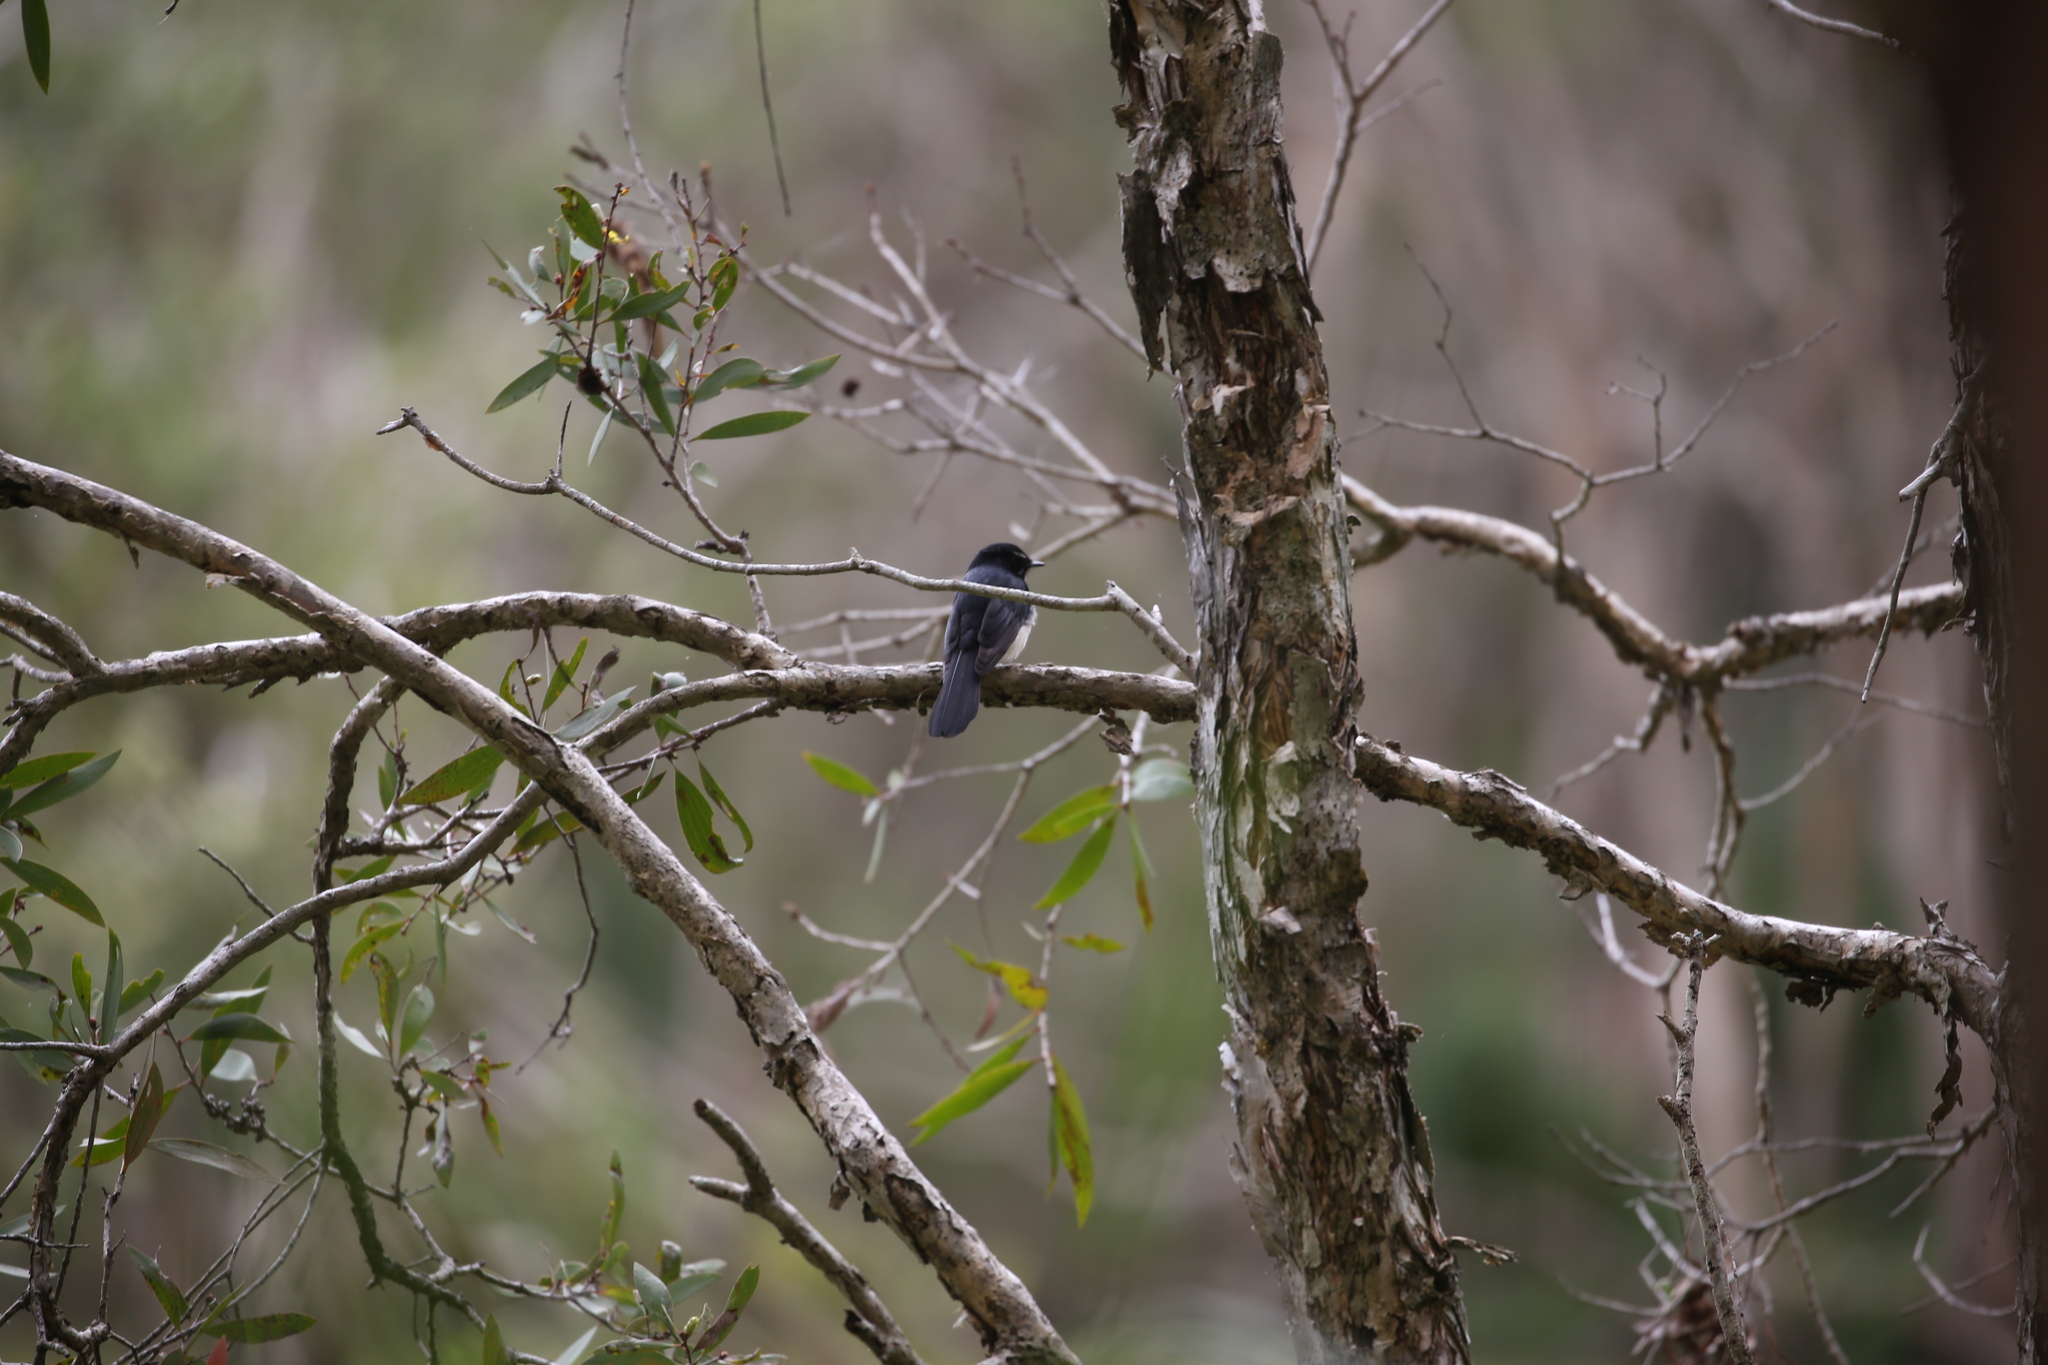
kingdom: Animalia
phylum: Chordata
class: Aves
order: Passeriformes
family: Rhipiduridae
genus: Rhipidura
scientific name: Rhipidura leucophrys
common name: Willie wagtail
